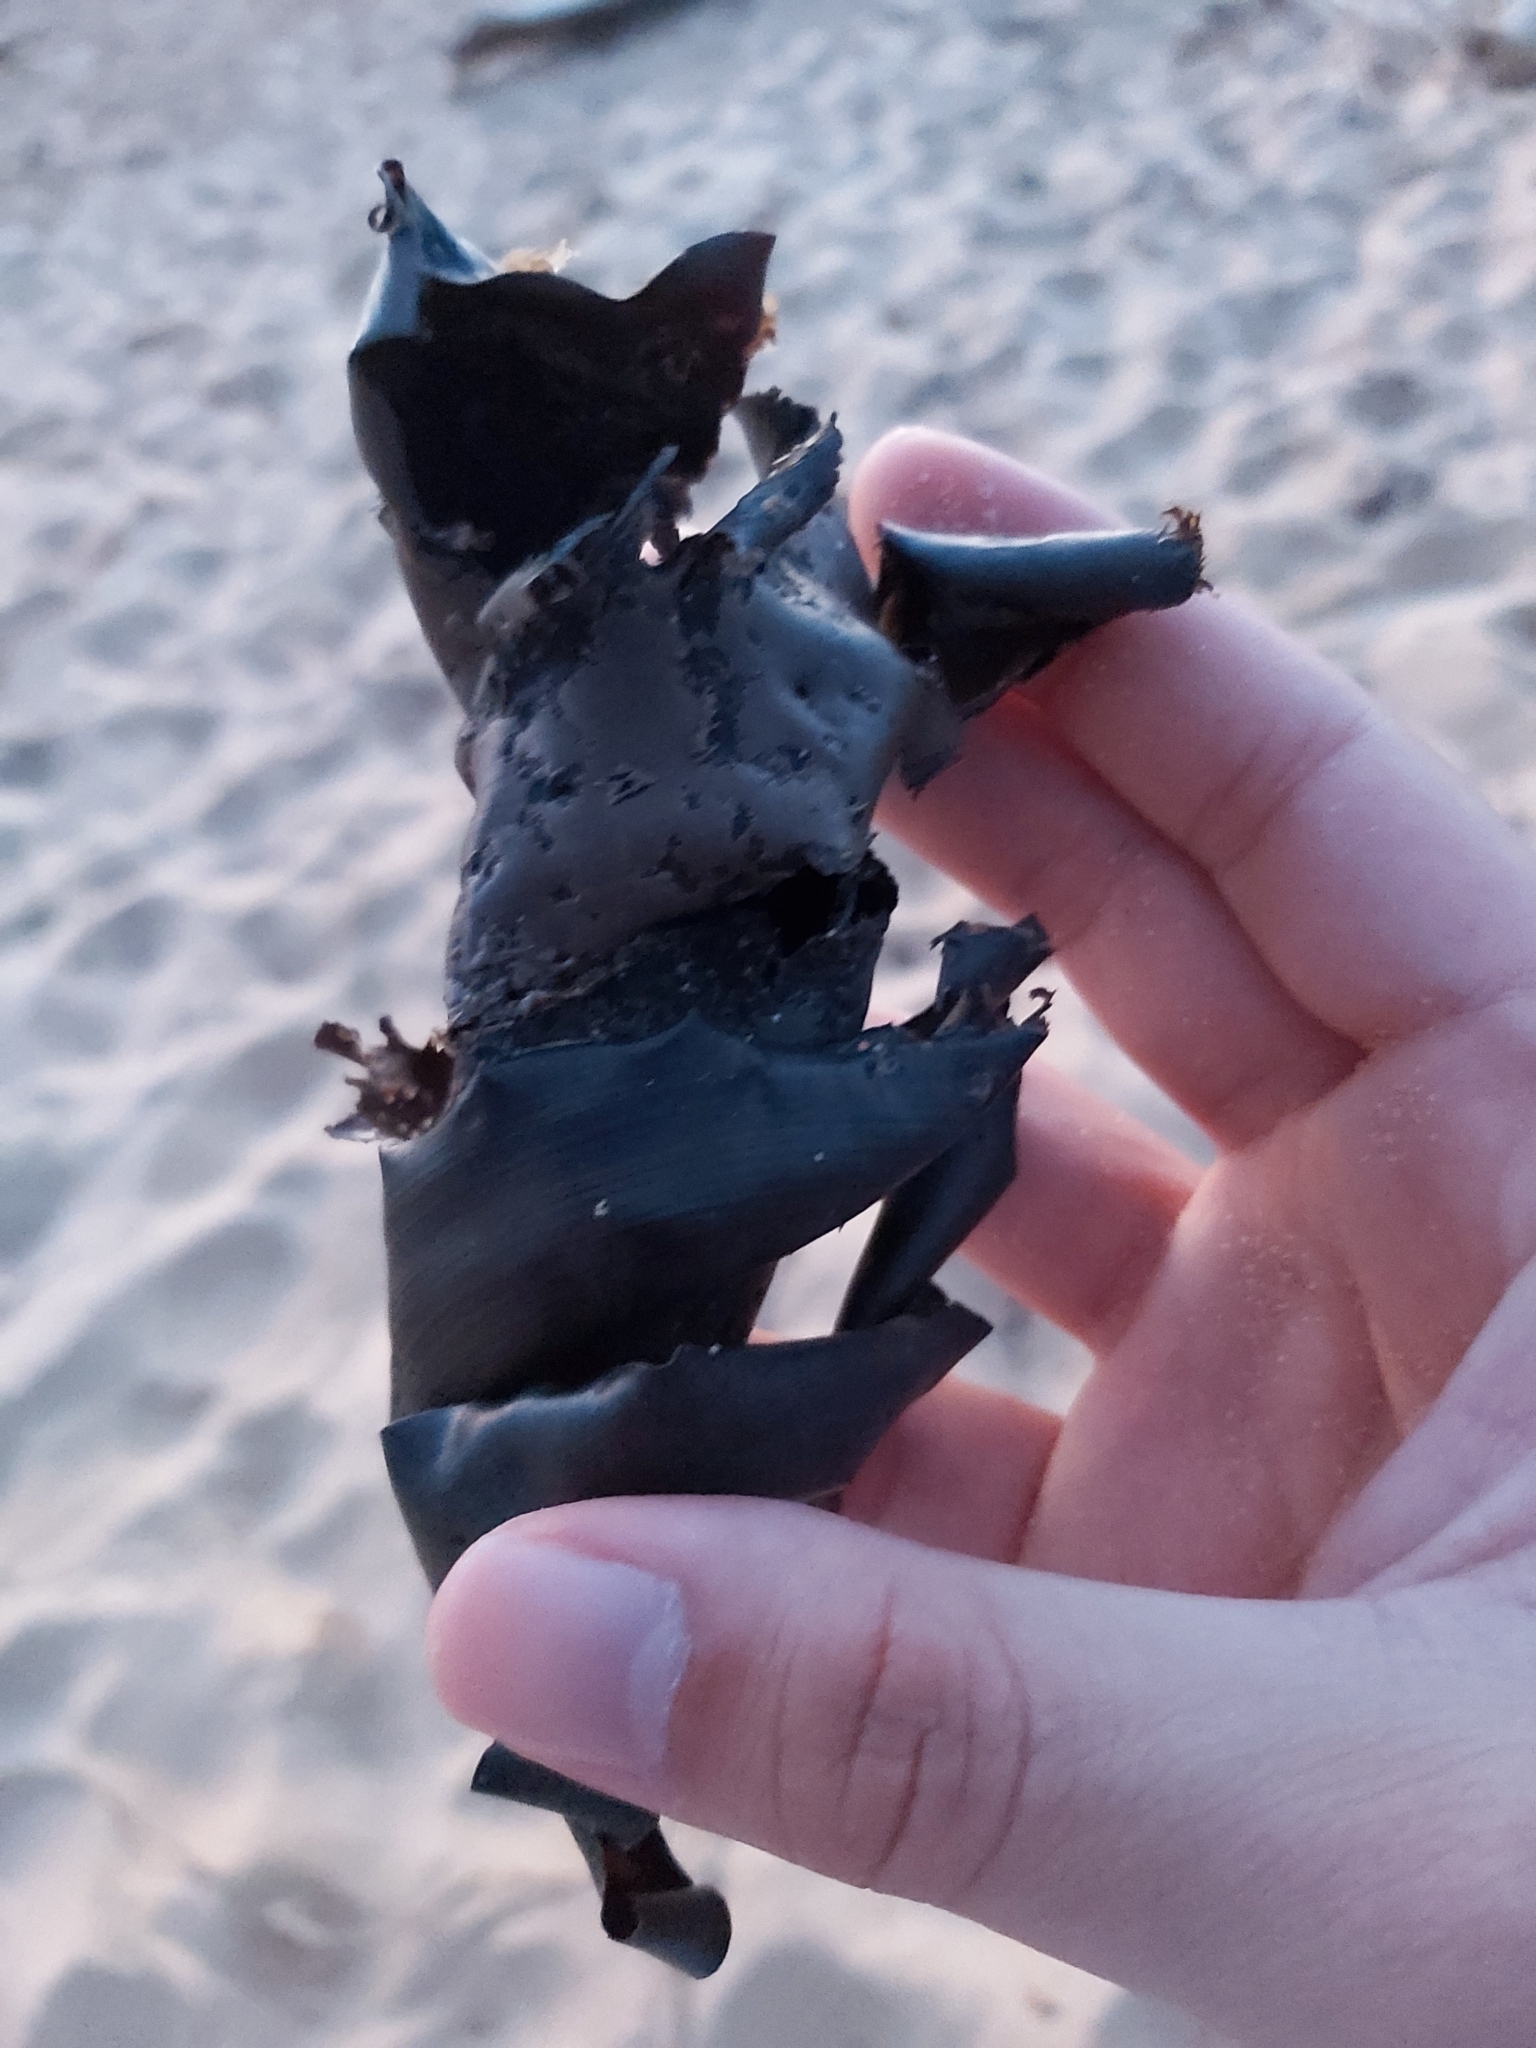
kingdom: Animalia
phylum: Chordata
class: Elasmobranchii
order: Heterodontiformes
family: Heterodontidae
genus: Heterodontus
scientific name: Heterodontus portusjacksoni
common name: Port jackson shark
